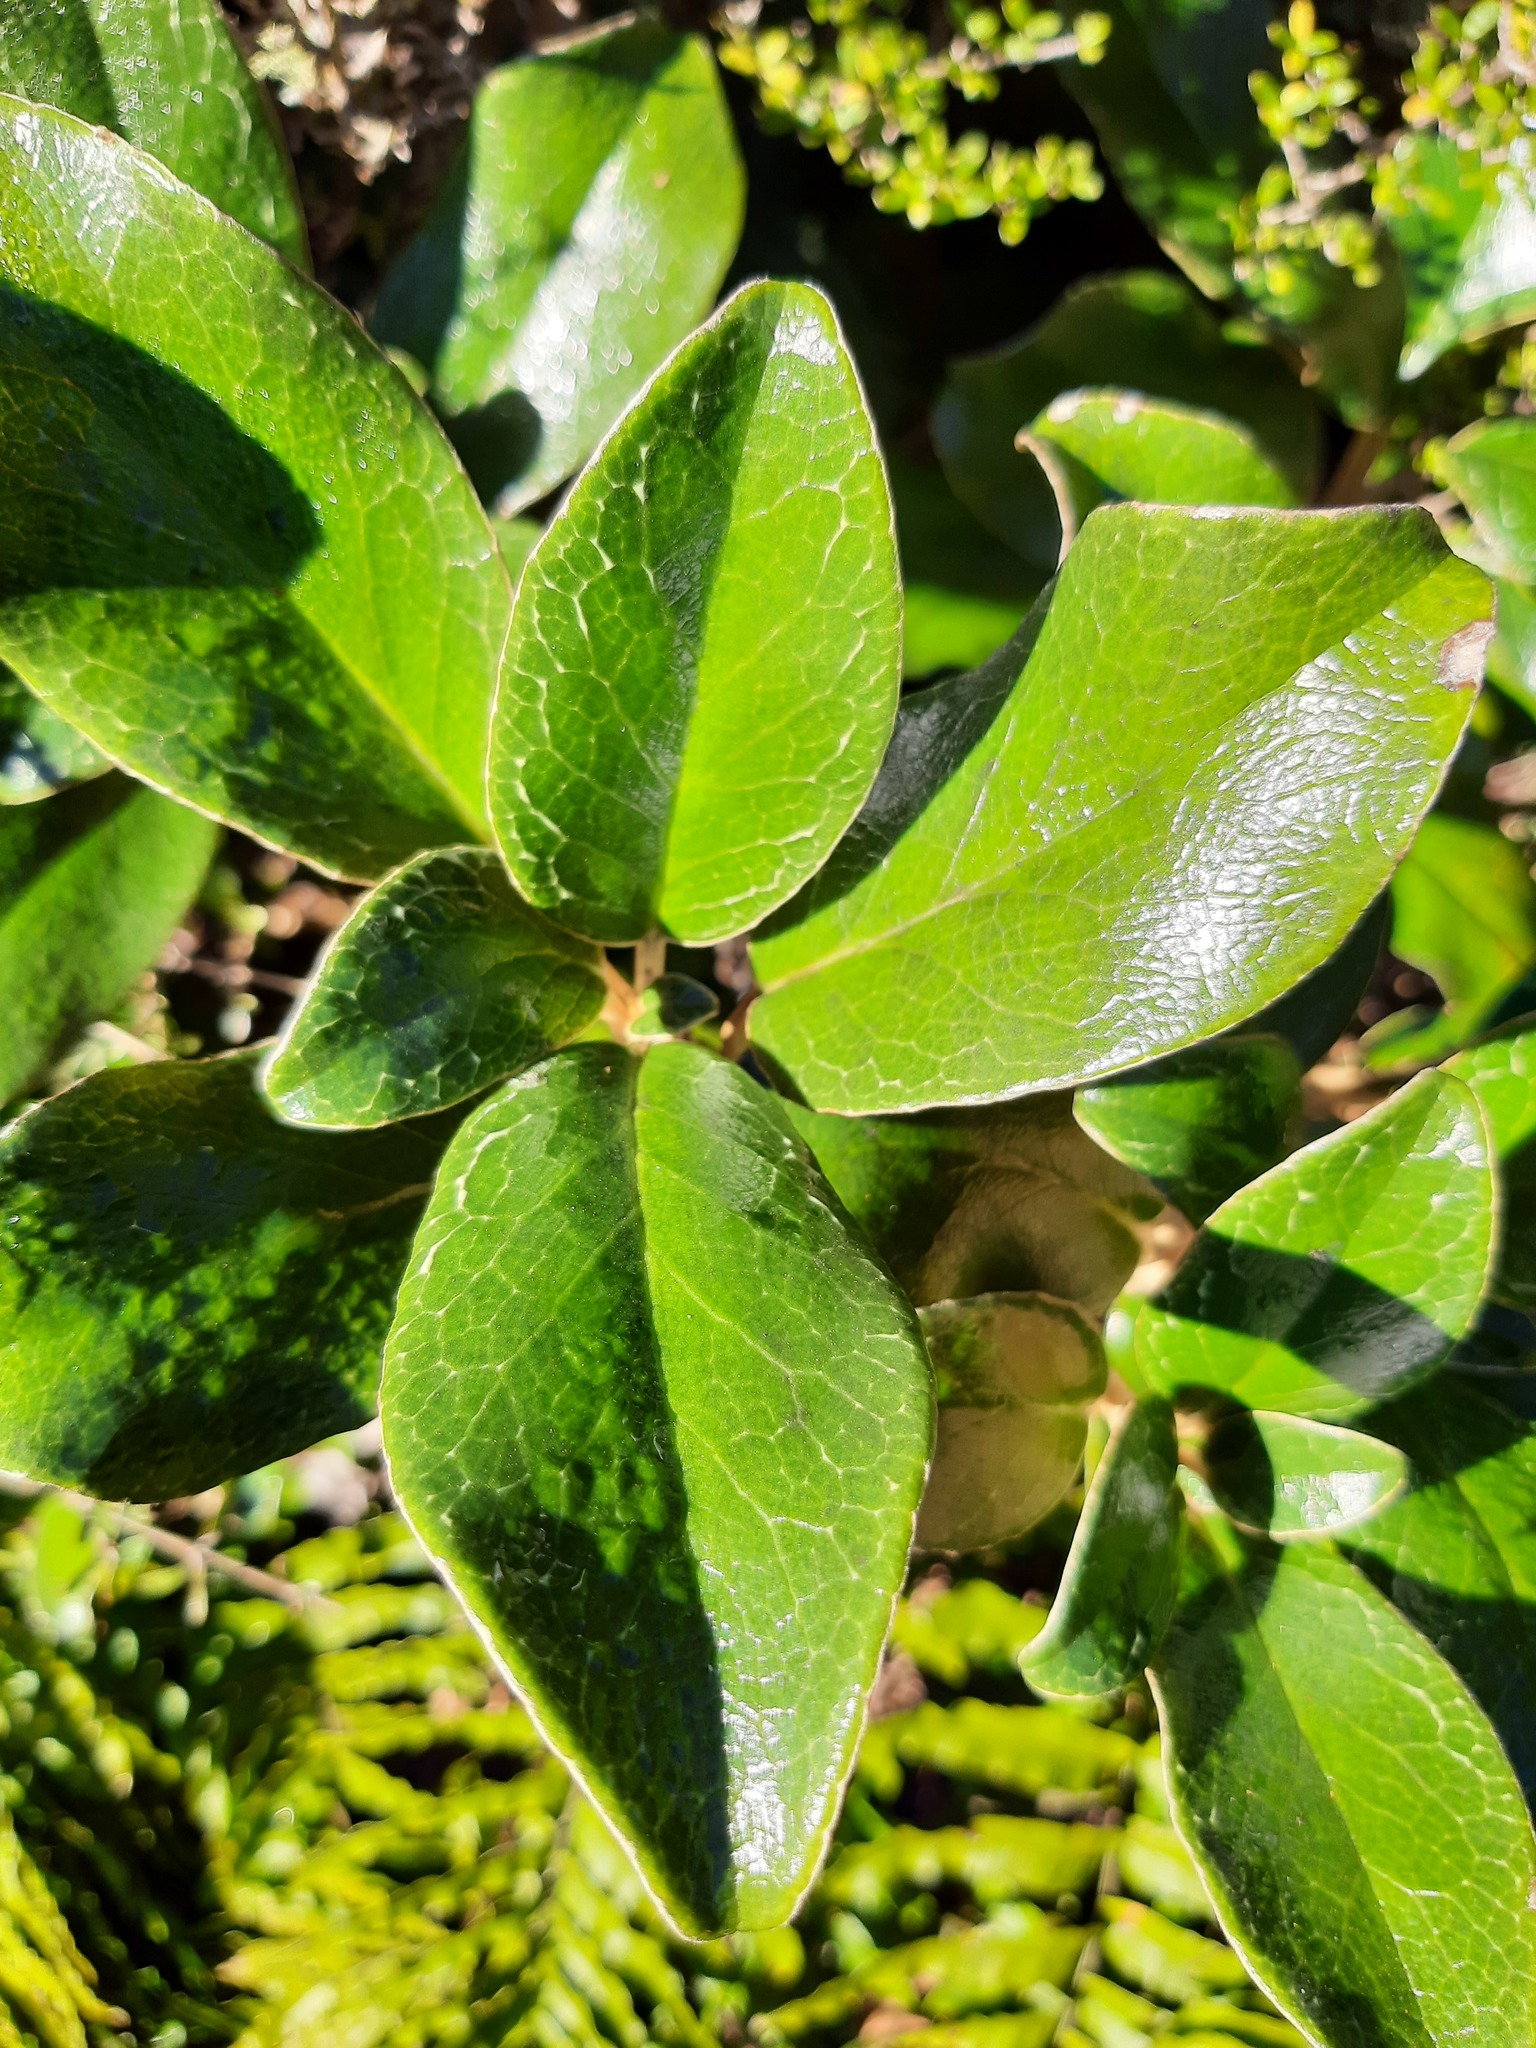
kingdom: Plantae
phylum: Tracheophyta
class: Magnoliopsida
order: Asterales
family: Asteraceae
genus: Brachyglottis
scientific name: Brachyglottis elaeagnifolia
